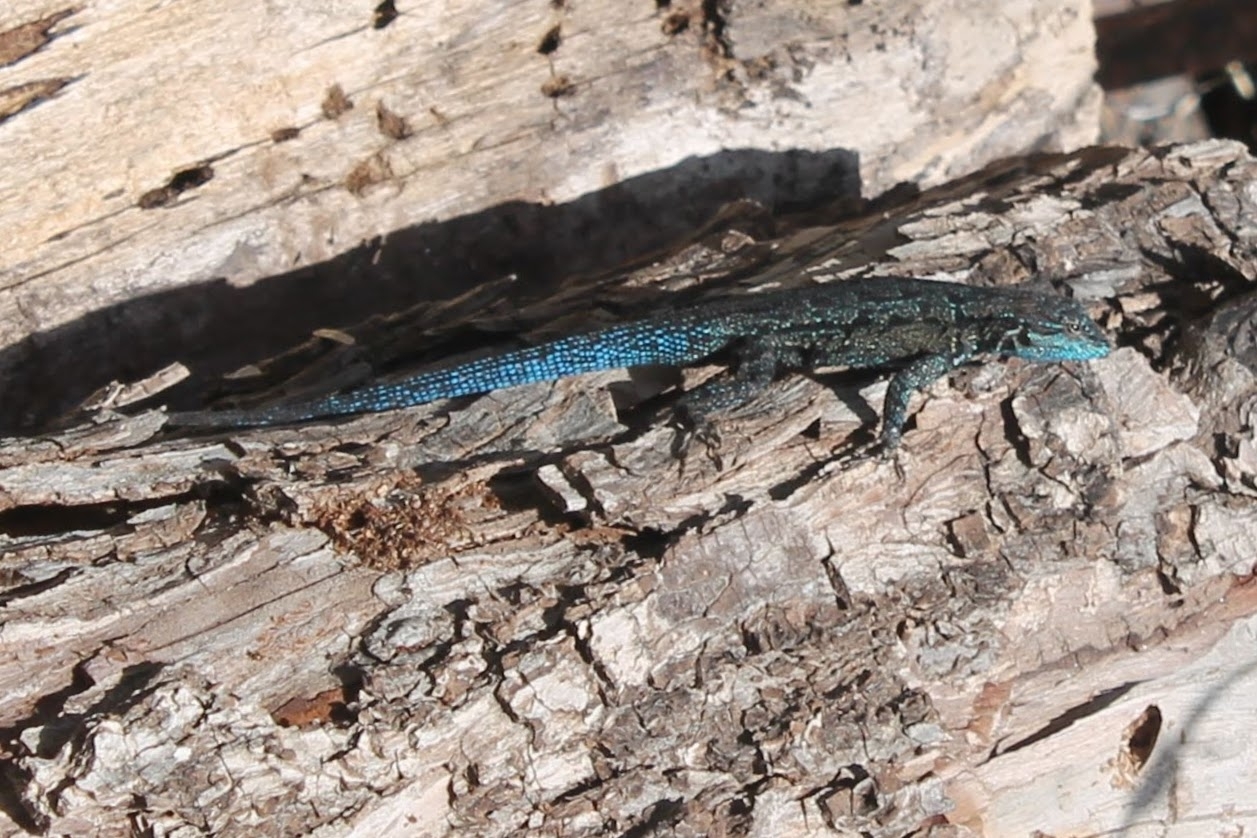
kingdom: Animalia
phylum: Chordata
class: Squamata
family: Phrynosomatidae
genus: Urosaurus
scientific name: Urosaurus ornatus
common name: Ornate tree lizard
